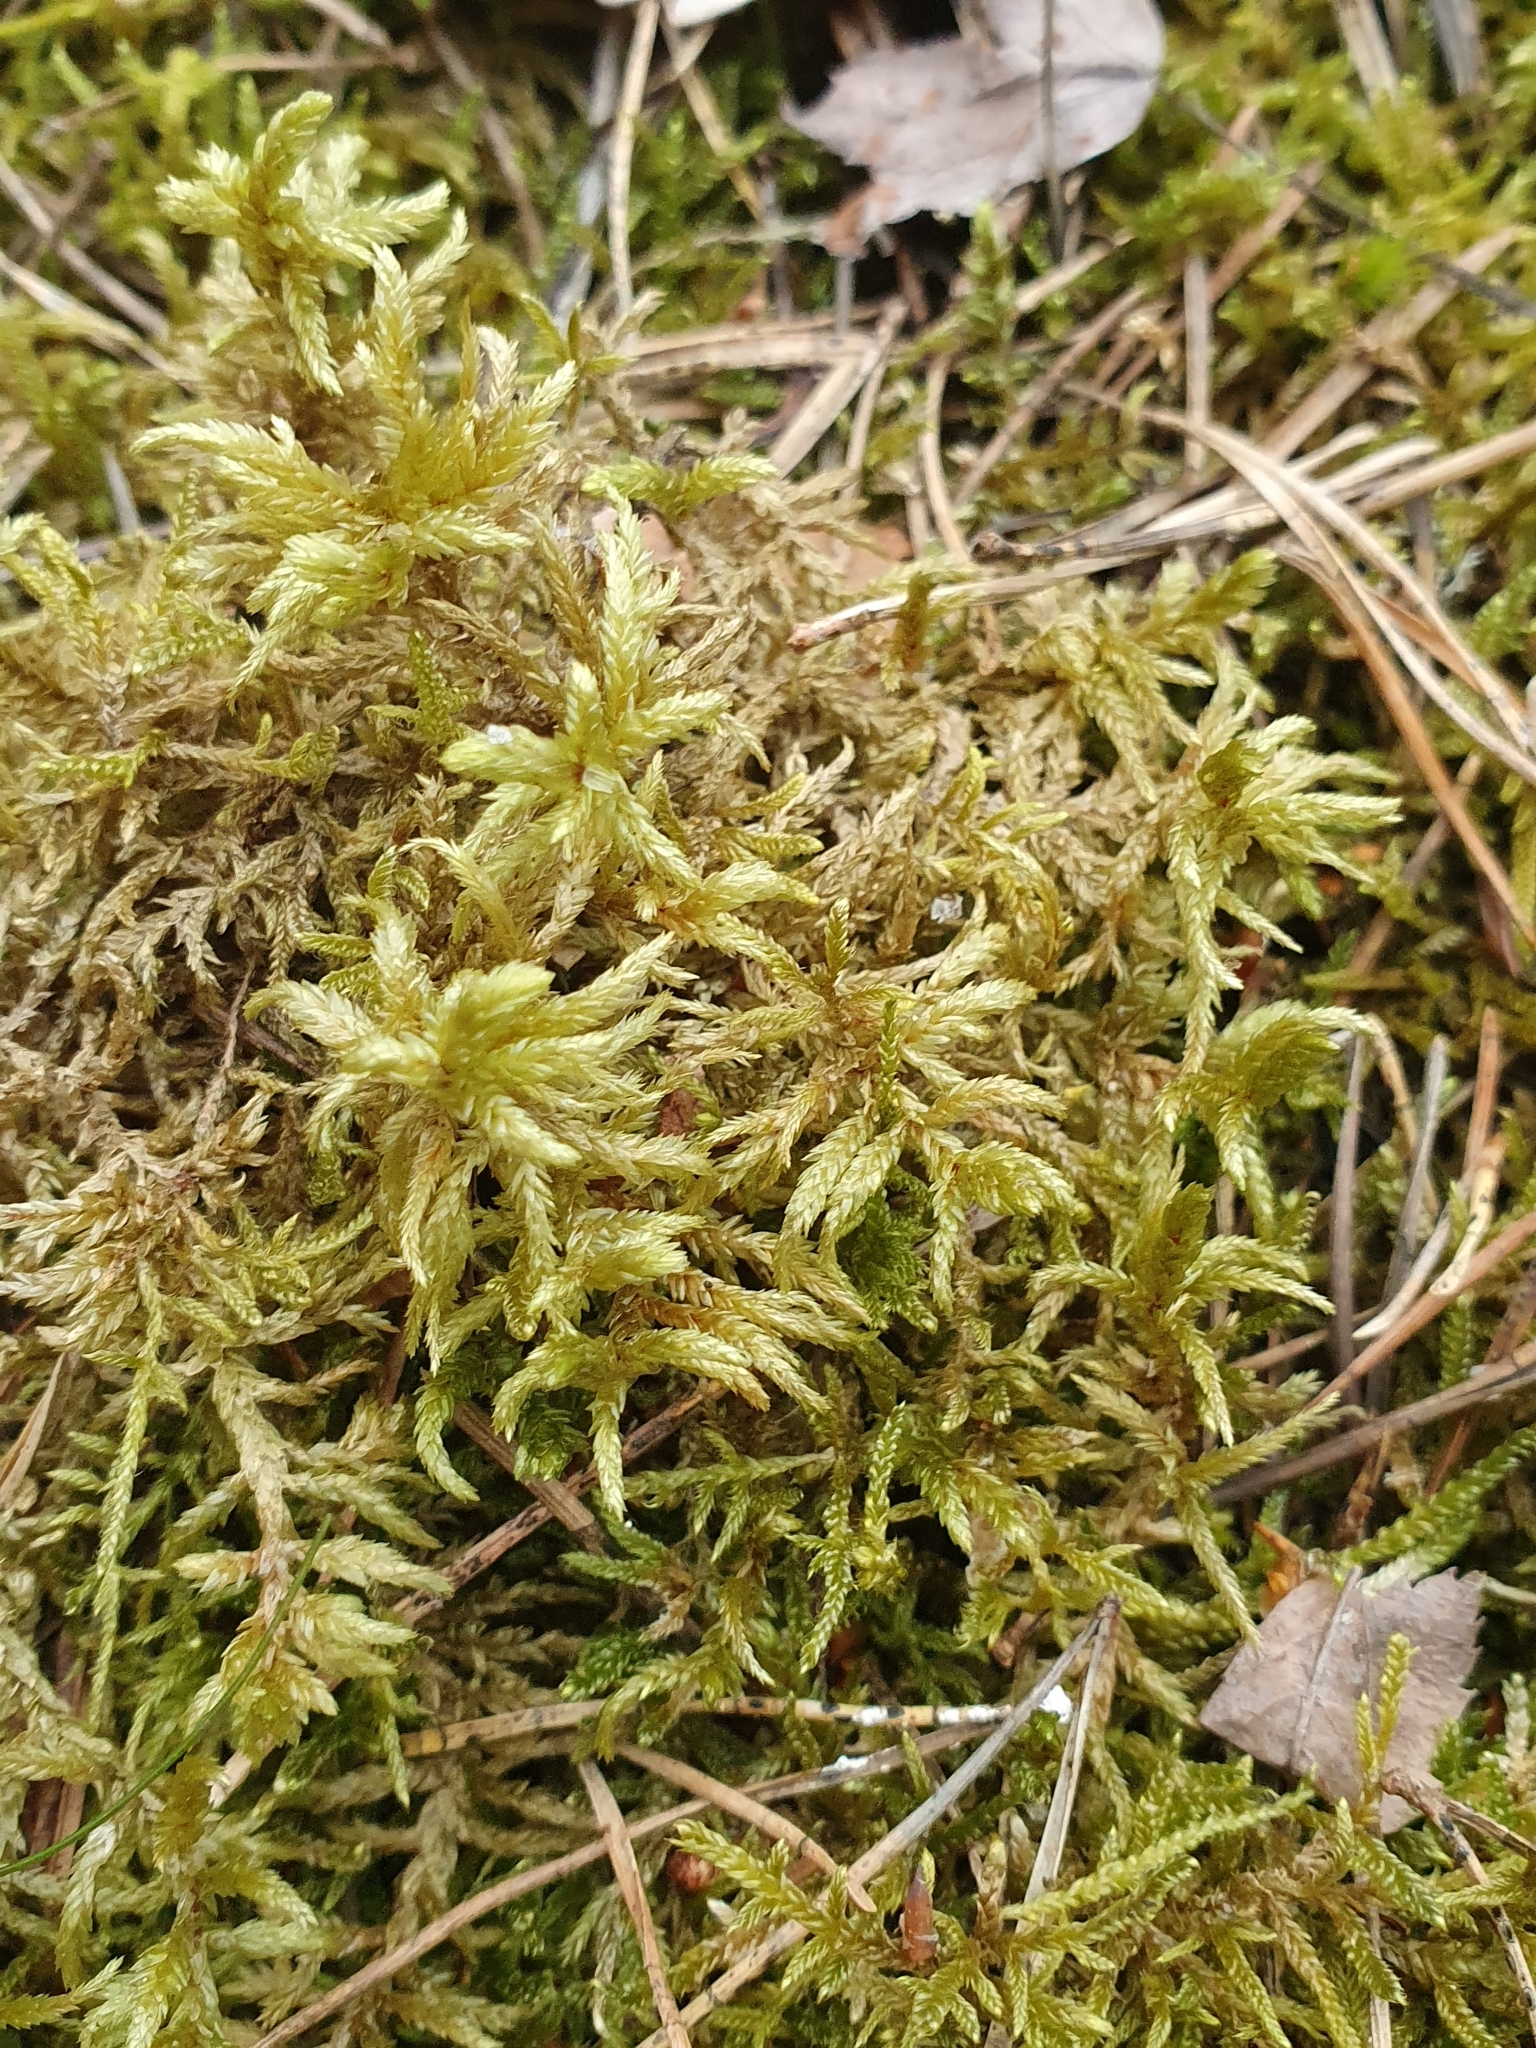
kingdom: Plantae
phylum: Bryophyta
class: Bryopsida
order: Hypnales
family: Hylocomiaceae
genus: Pleurozium
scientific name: Pleurozium schreberi
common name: Red-stemmed feather moss
